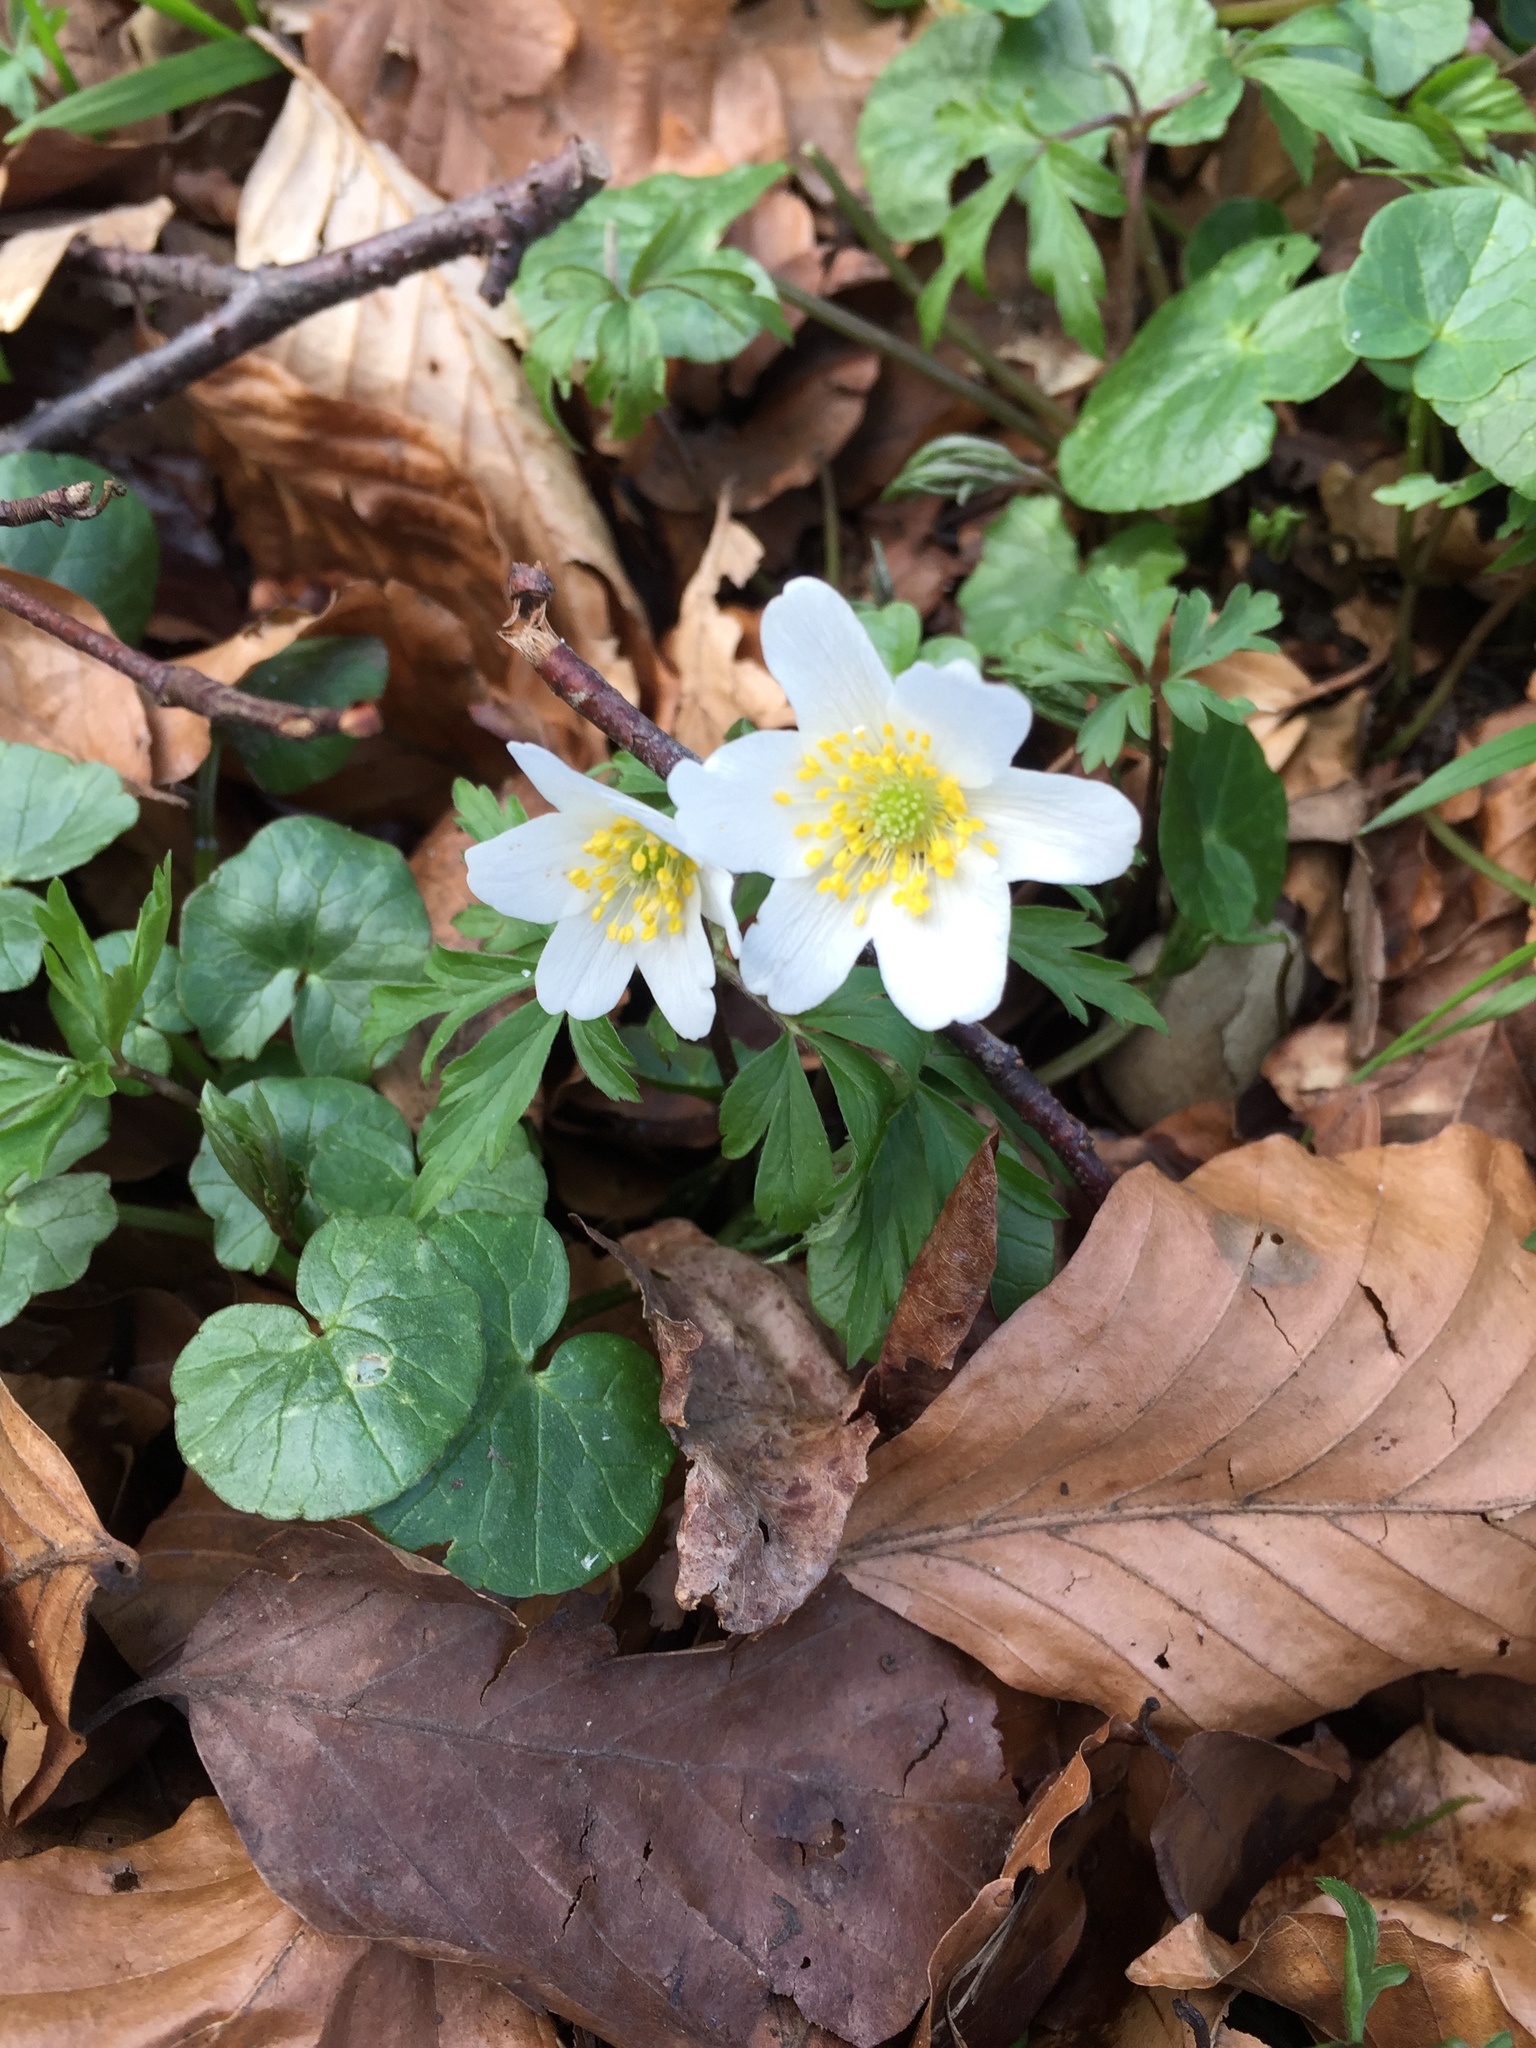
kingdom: Plantae
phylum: Tracheophyta
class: Magnoliopsida
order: Ranunculales
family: Ranunculaceae
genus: Anemone
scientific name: Anemone nemorosa
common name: Wood anemone
